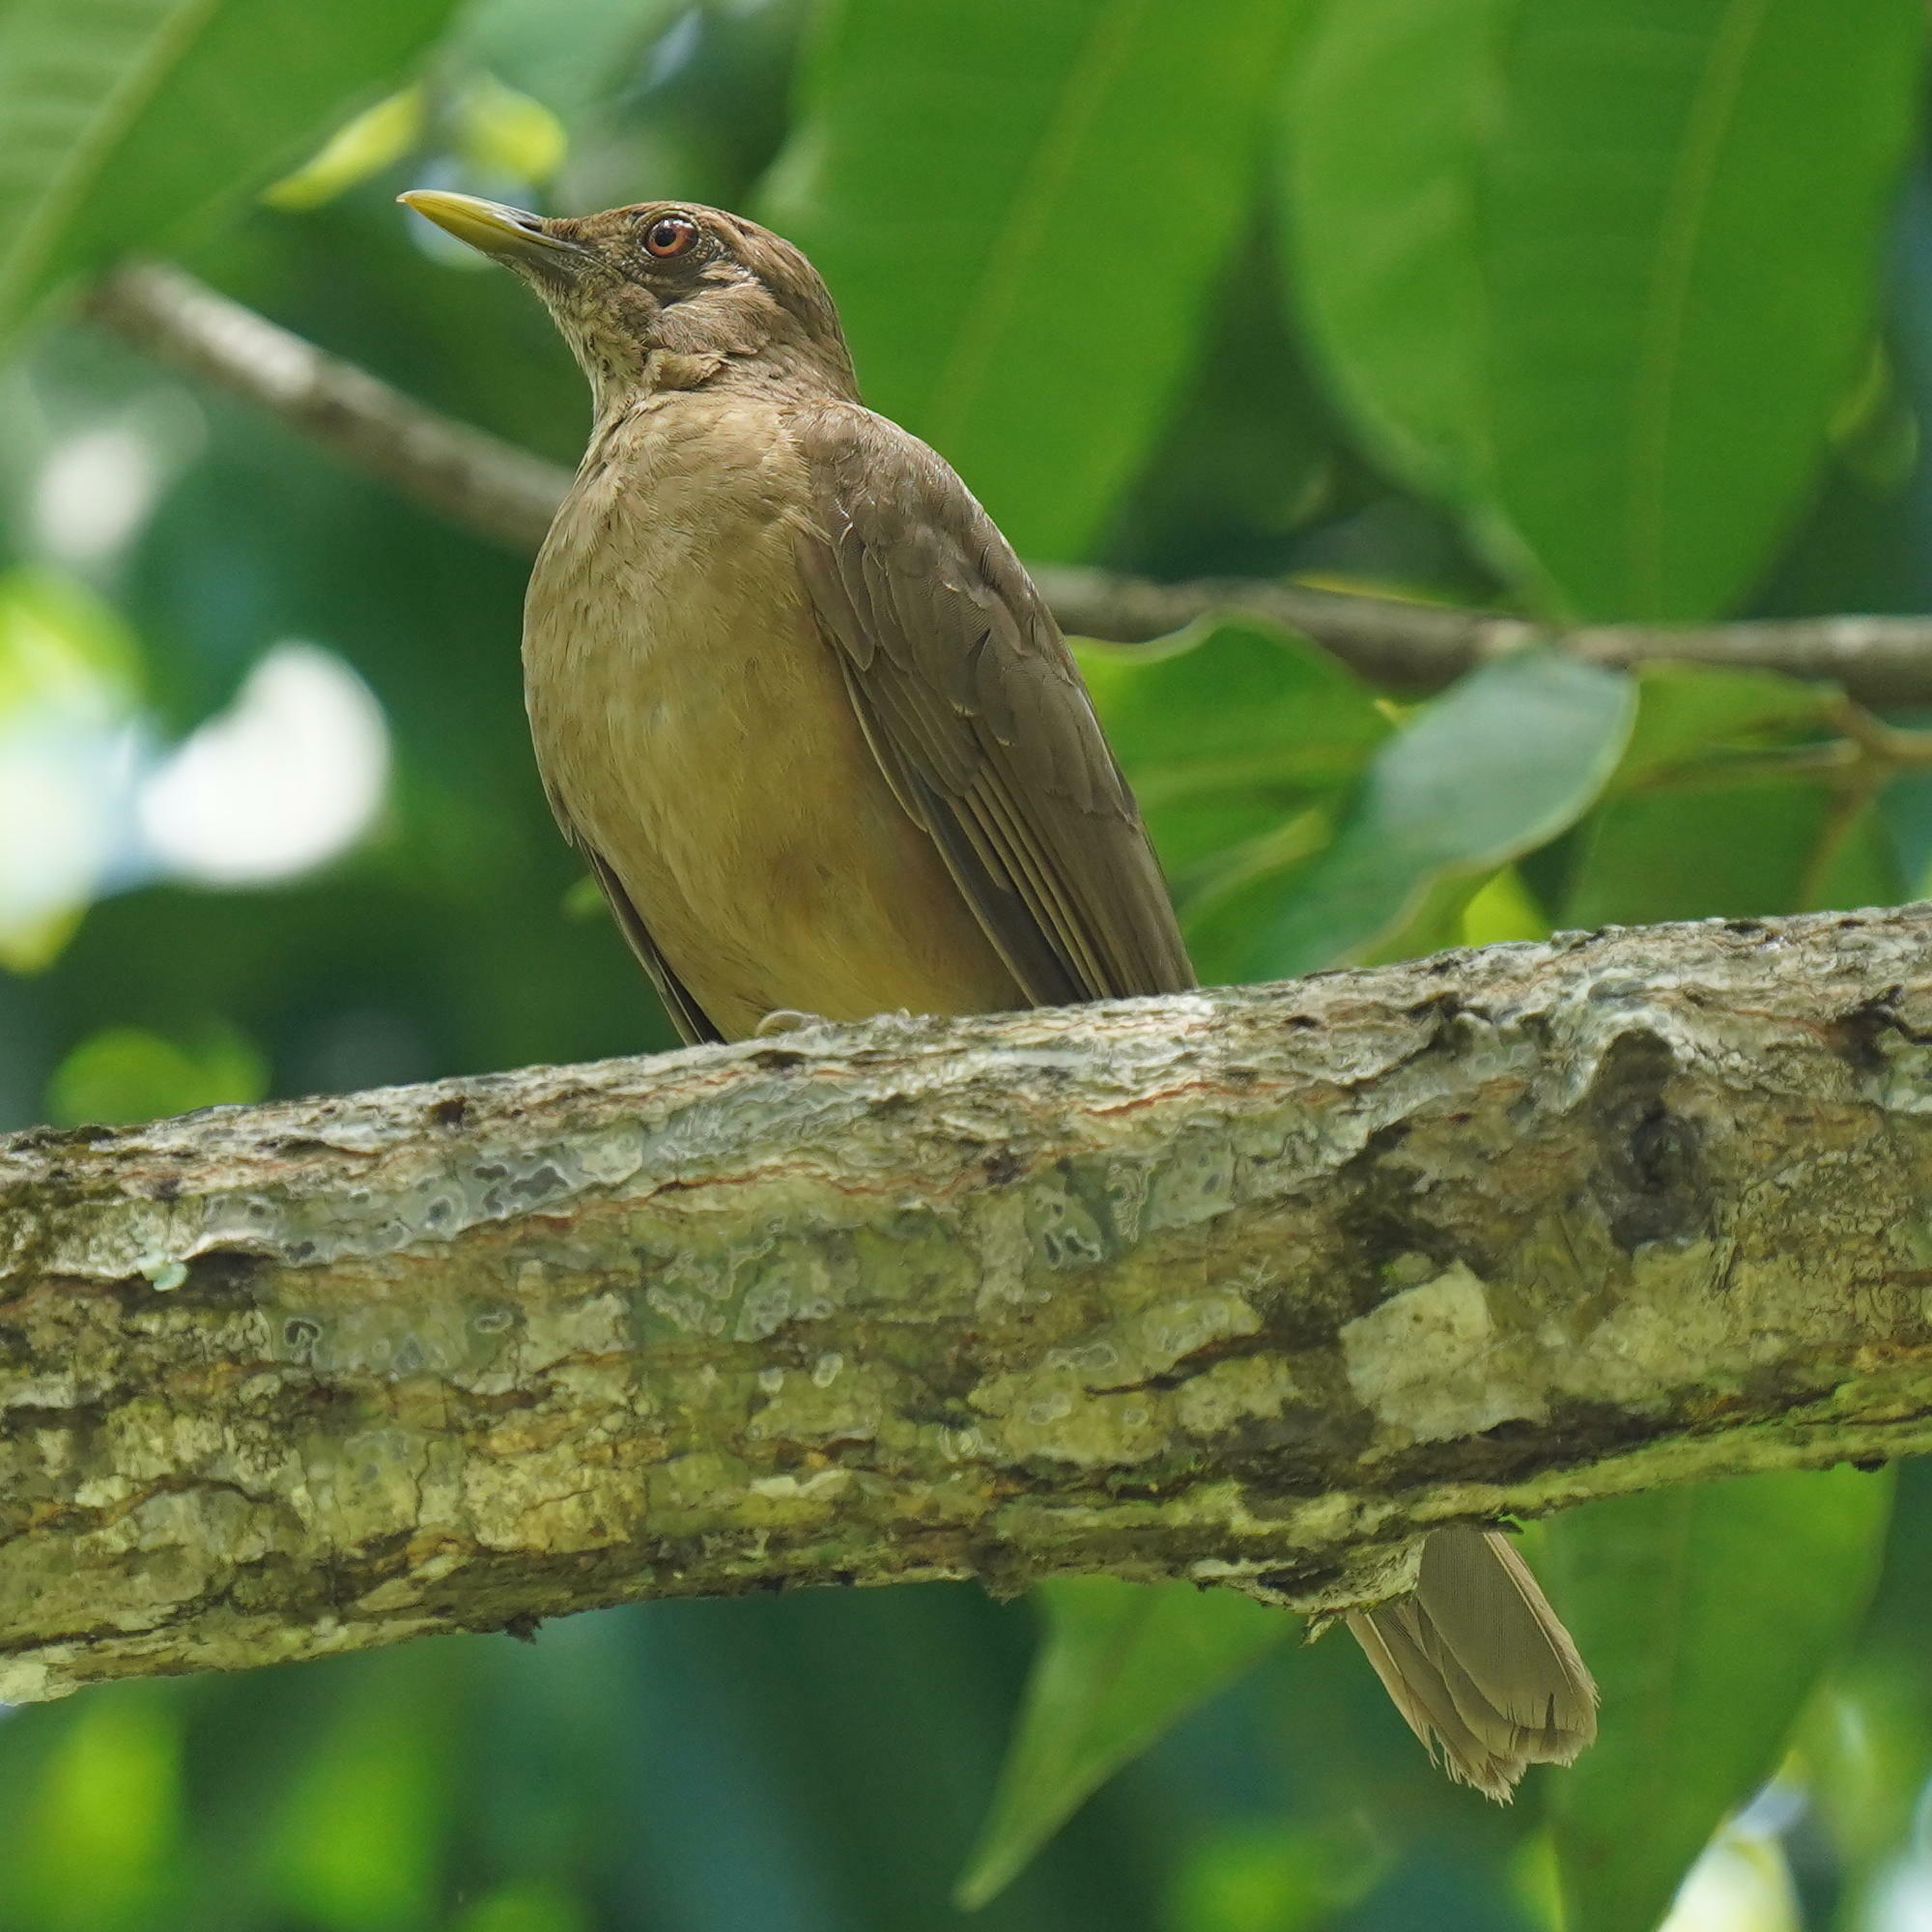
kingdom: Animalia
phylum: Chordata
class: Aves
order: Passeriformes
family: Turdidae
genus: Turdus
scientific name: Turdus grayi
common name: Clay-colored thrush
